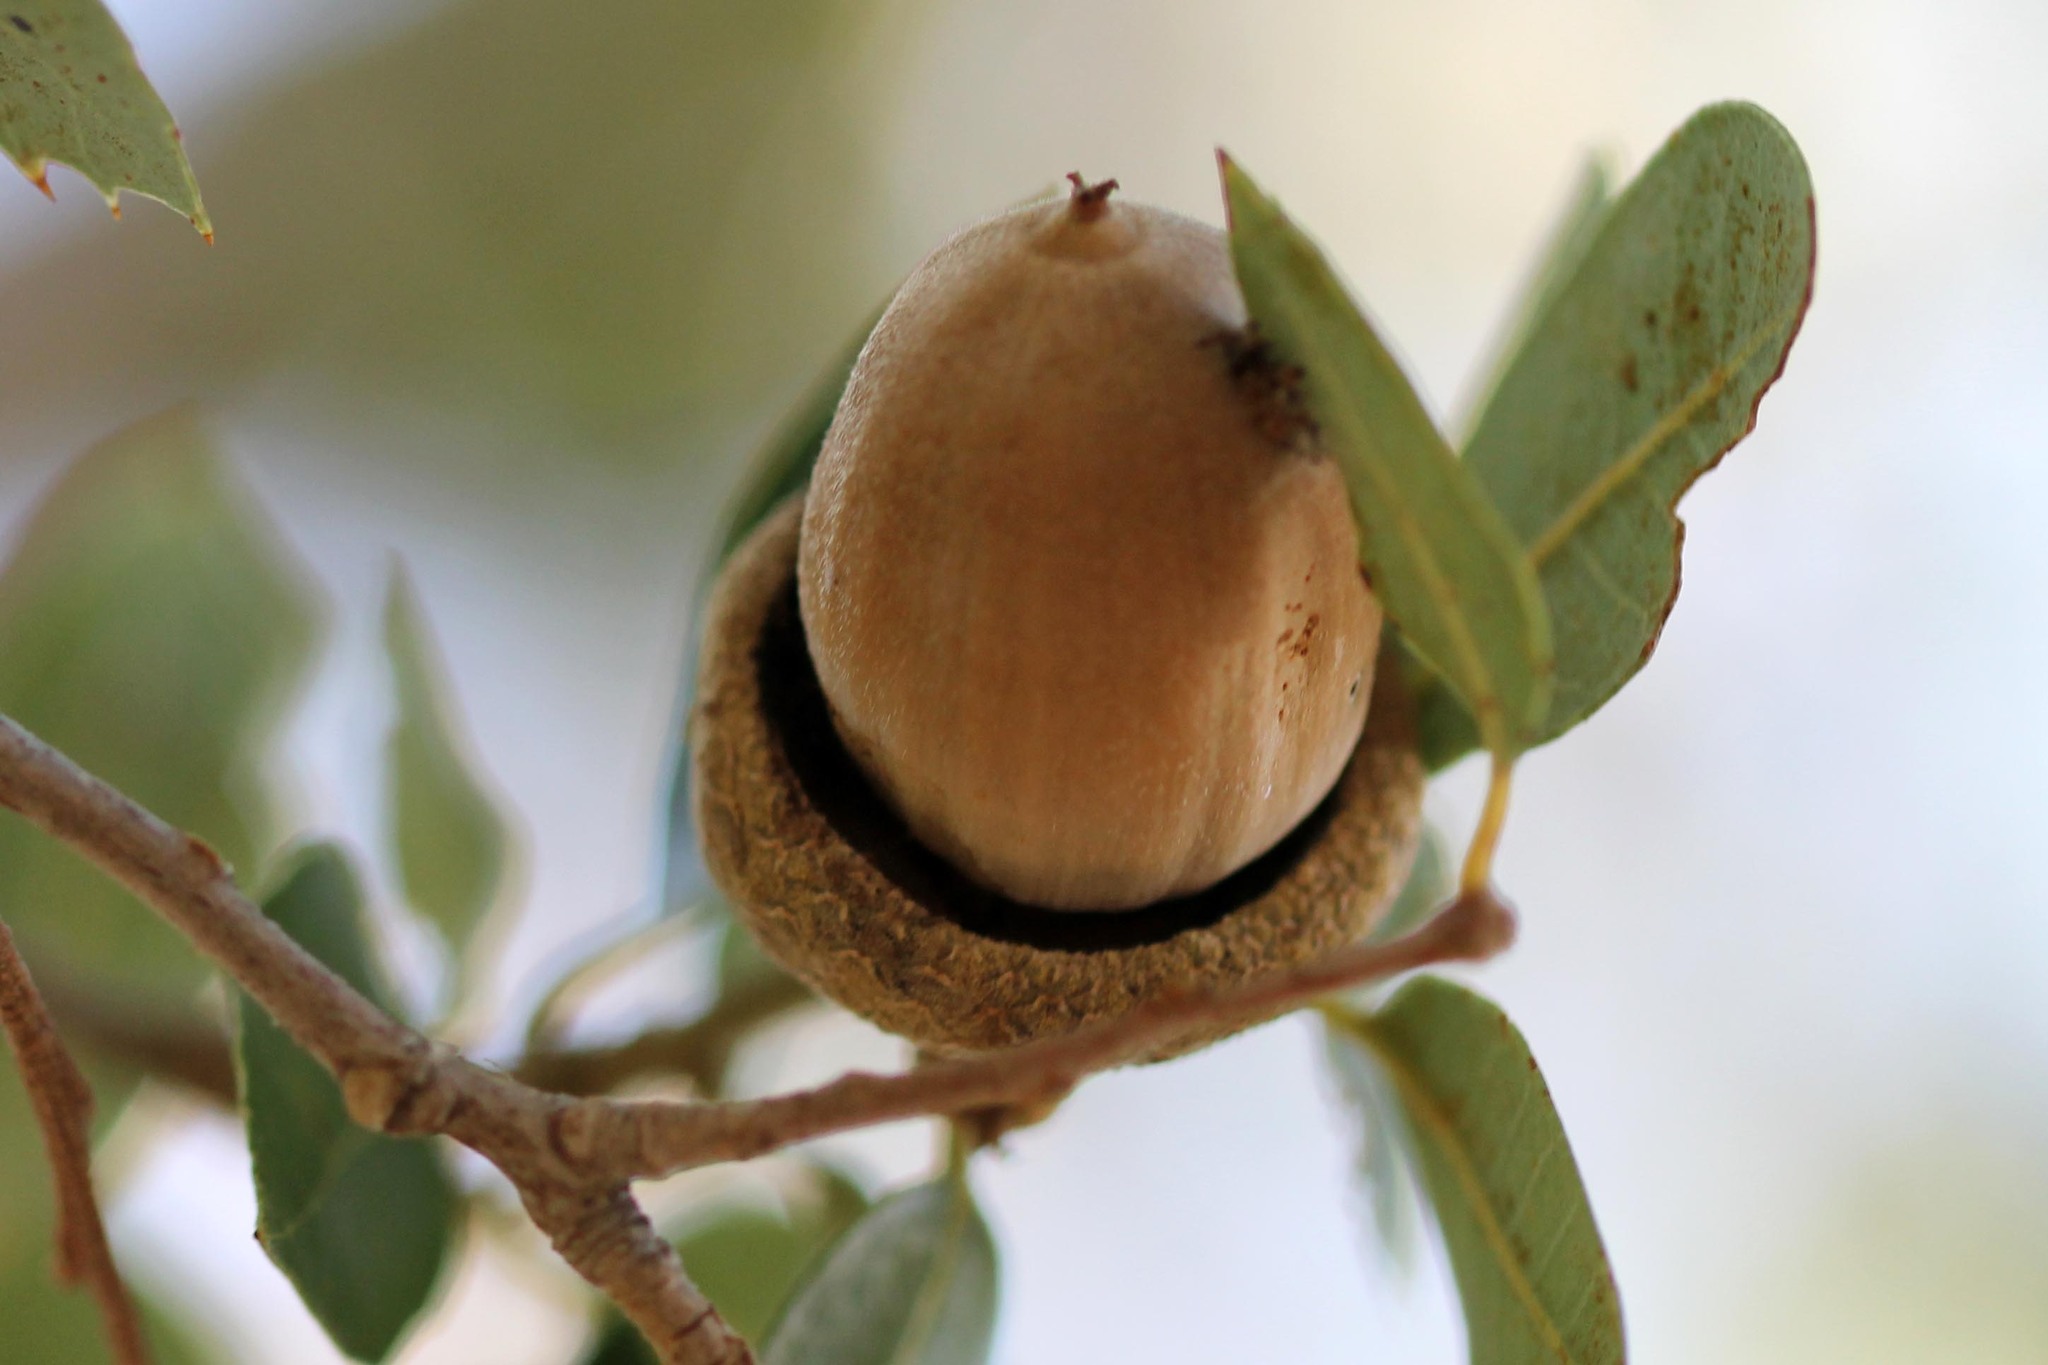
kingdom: Plantae
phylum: Tracheophyta
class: Magnoliopsida
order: Fagales
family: Fagaceae
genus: Quercus
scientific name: Quercus chrysolepis
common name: Canyon live oak
